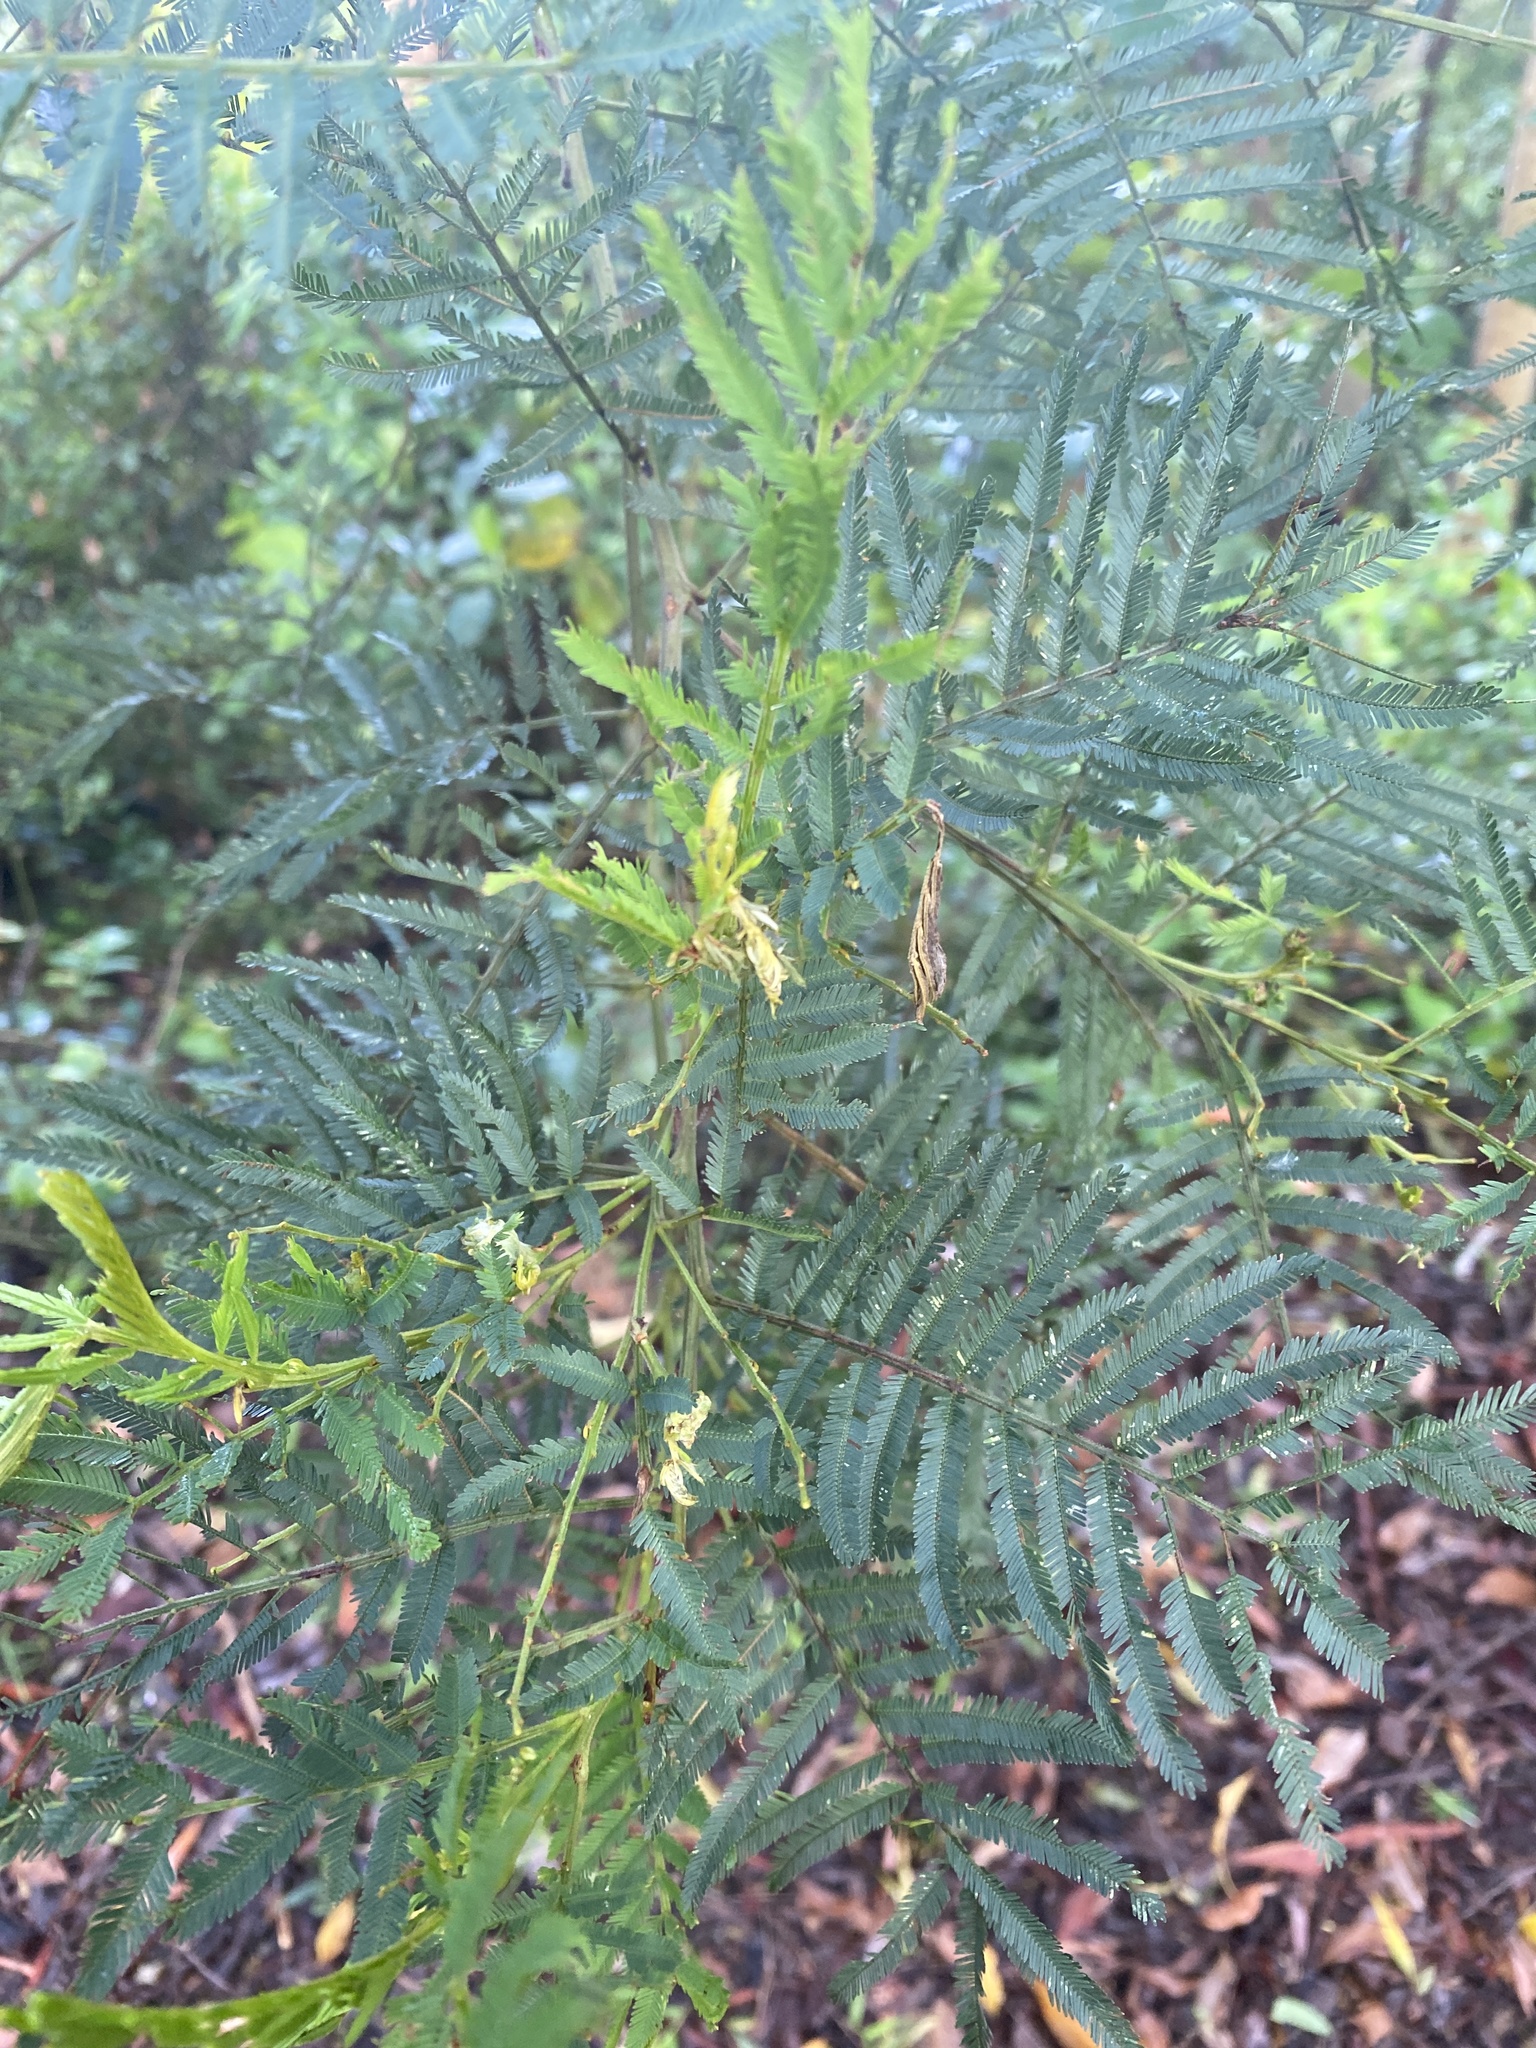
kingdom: Plantae
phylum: Tracheophyta
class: Magnoliopsida
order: Fabales
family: Fabaceae
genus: Acacia
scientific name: Acacia irrorata
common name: Green wattle
